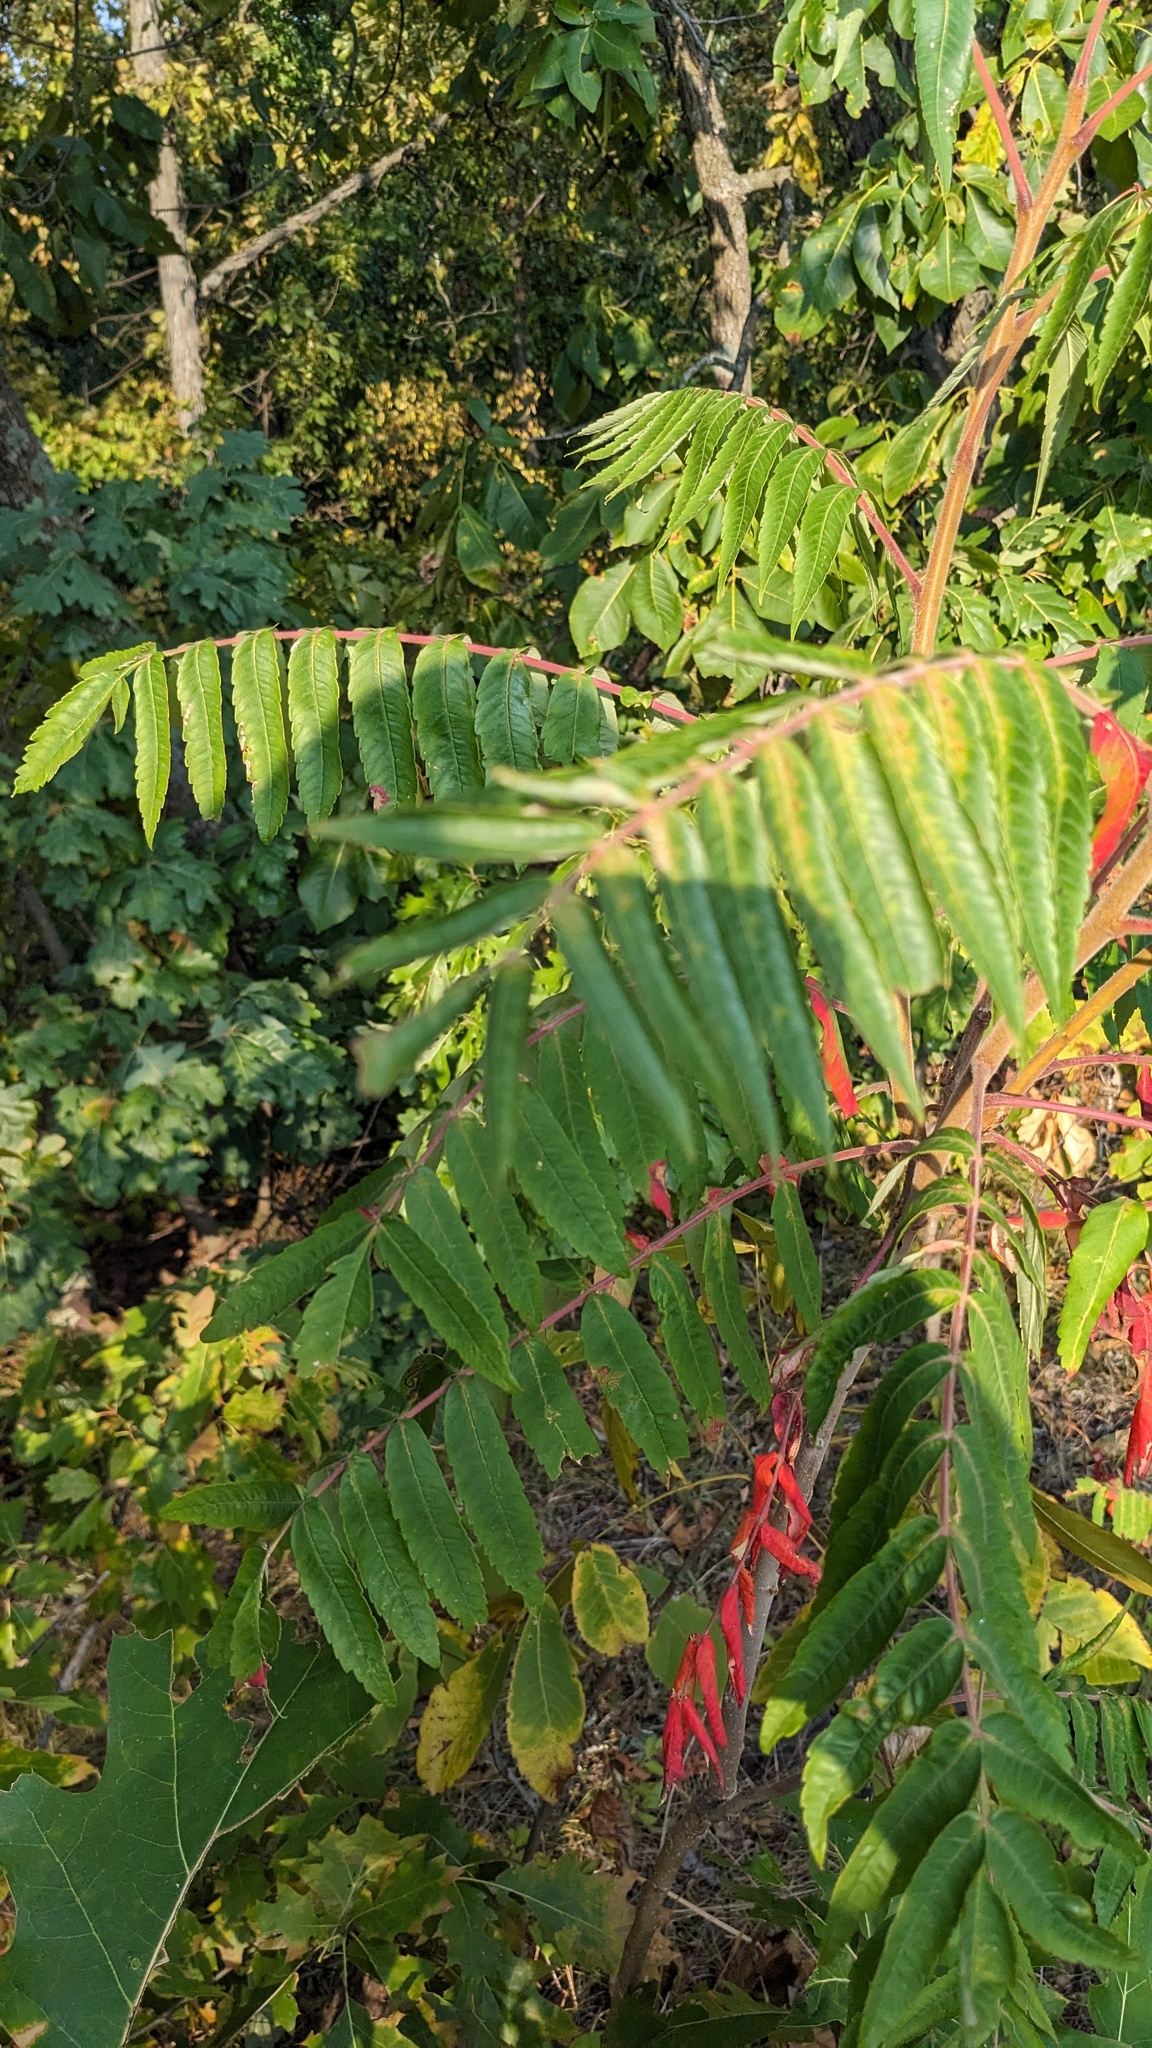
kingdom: Plantae
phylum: Tracheophyta
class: Magnoliopsida
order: Sapindales
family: Anacardiaceae
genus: Rhus
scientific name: Rhus typhina
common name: Staghorn sumac
